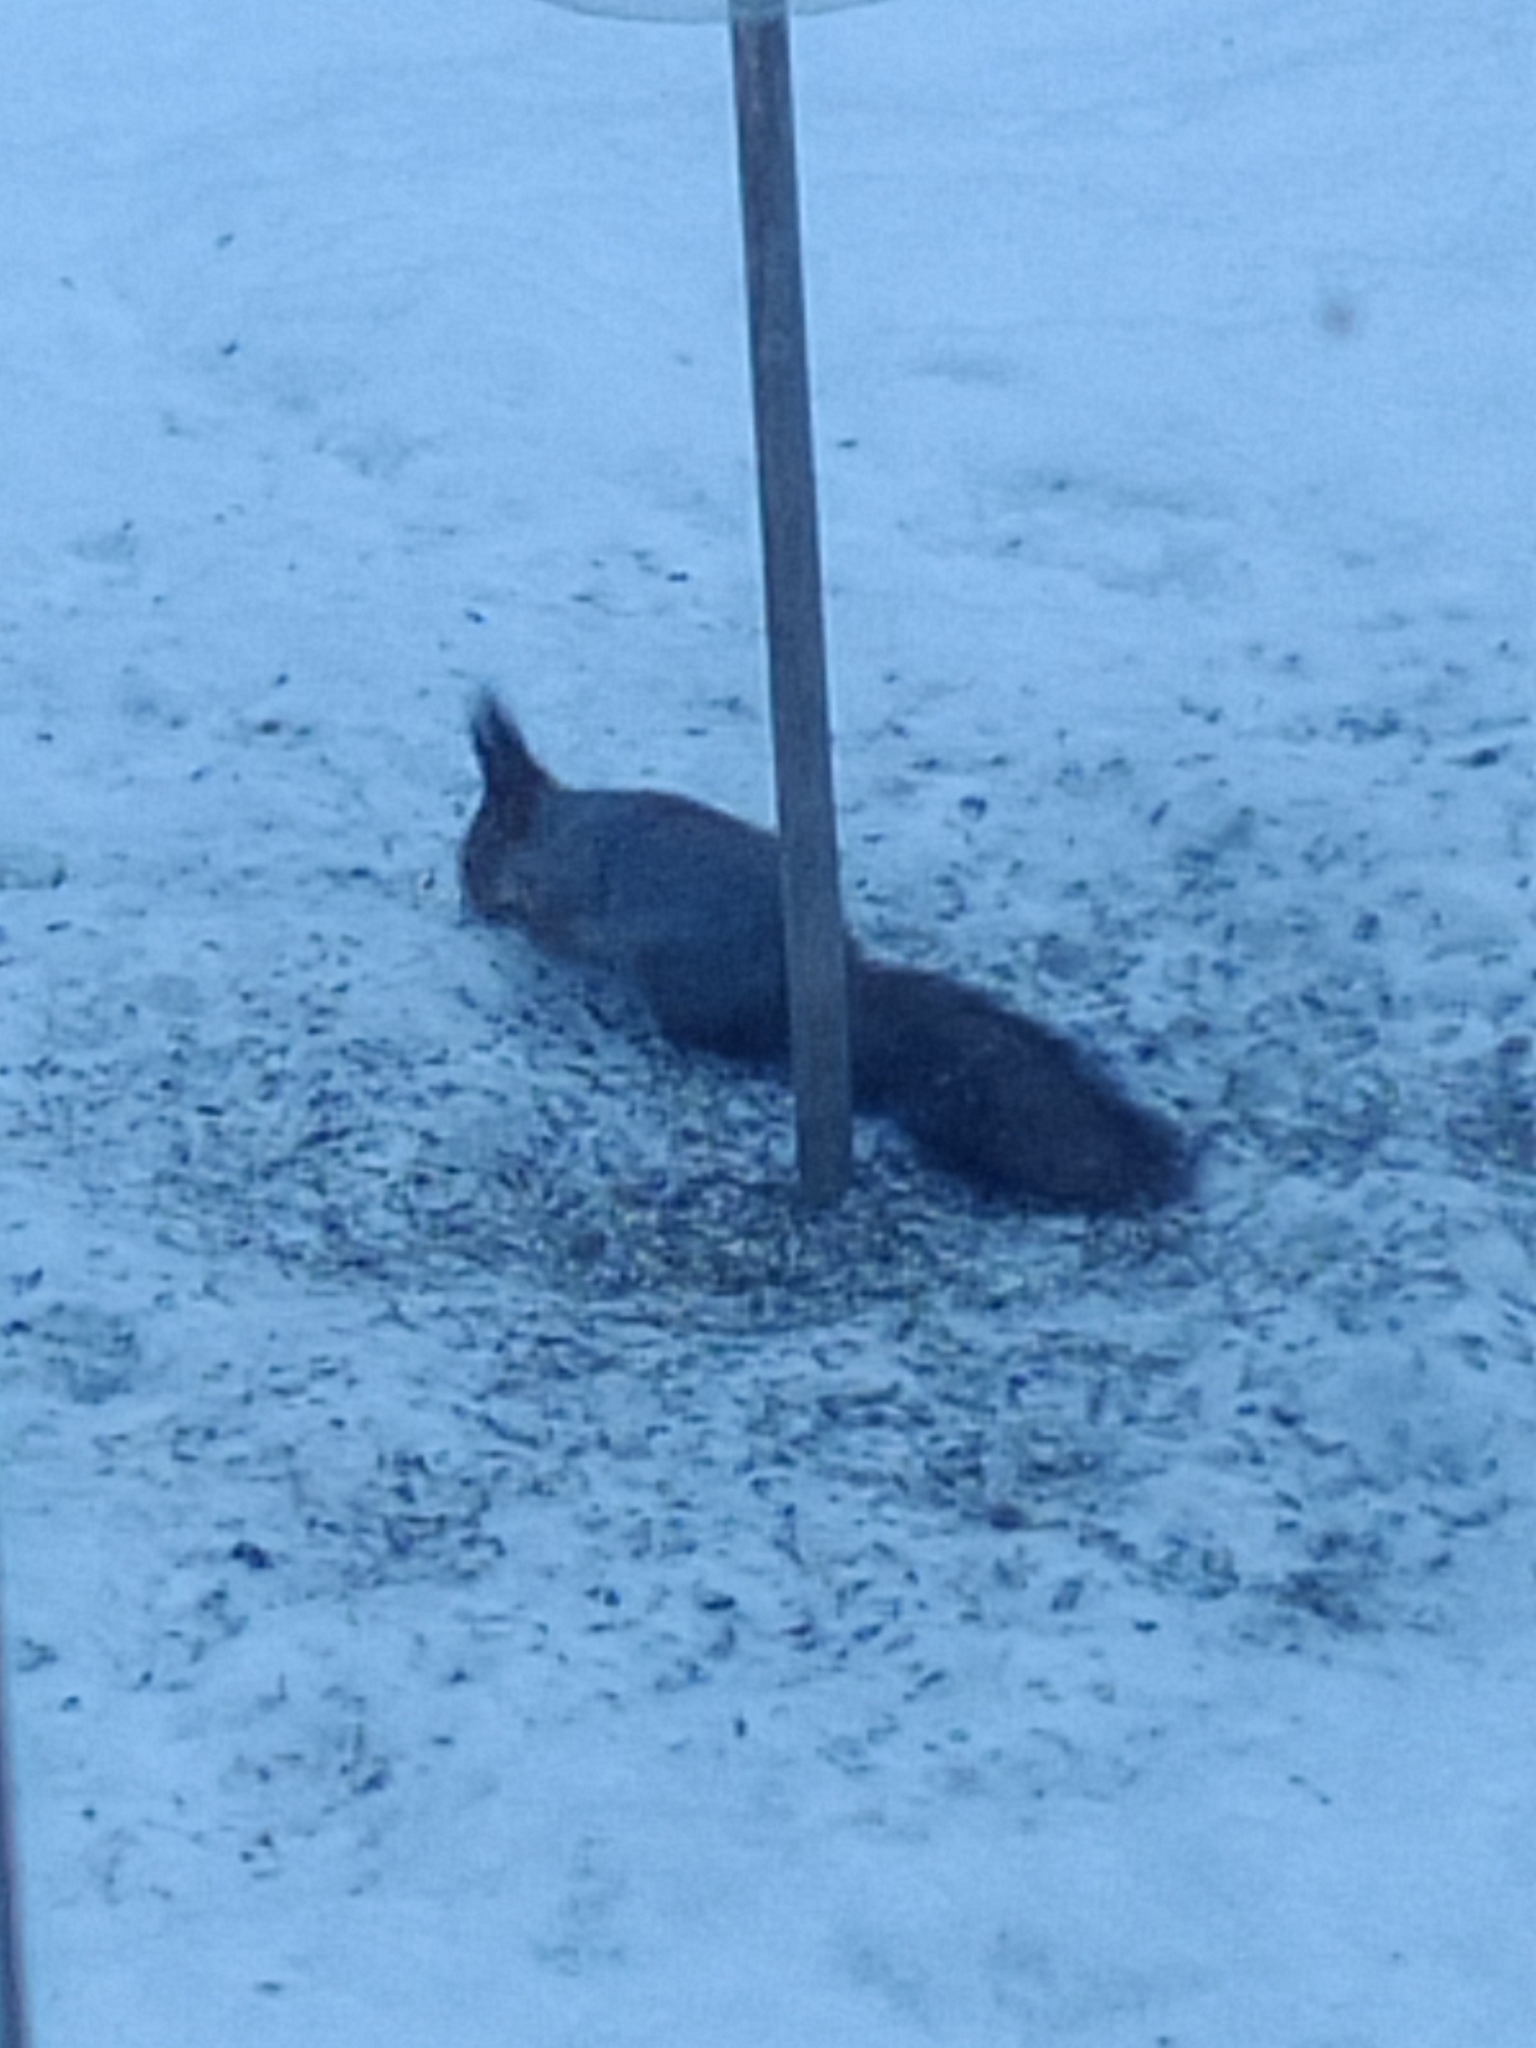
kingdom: Animalia
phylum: Chordata
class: Mammalia
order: Rodentia
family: Sciuridae
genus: Sciurus
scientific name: Sciurus vulgaris
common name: Eurasian red squirrel
